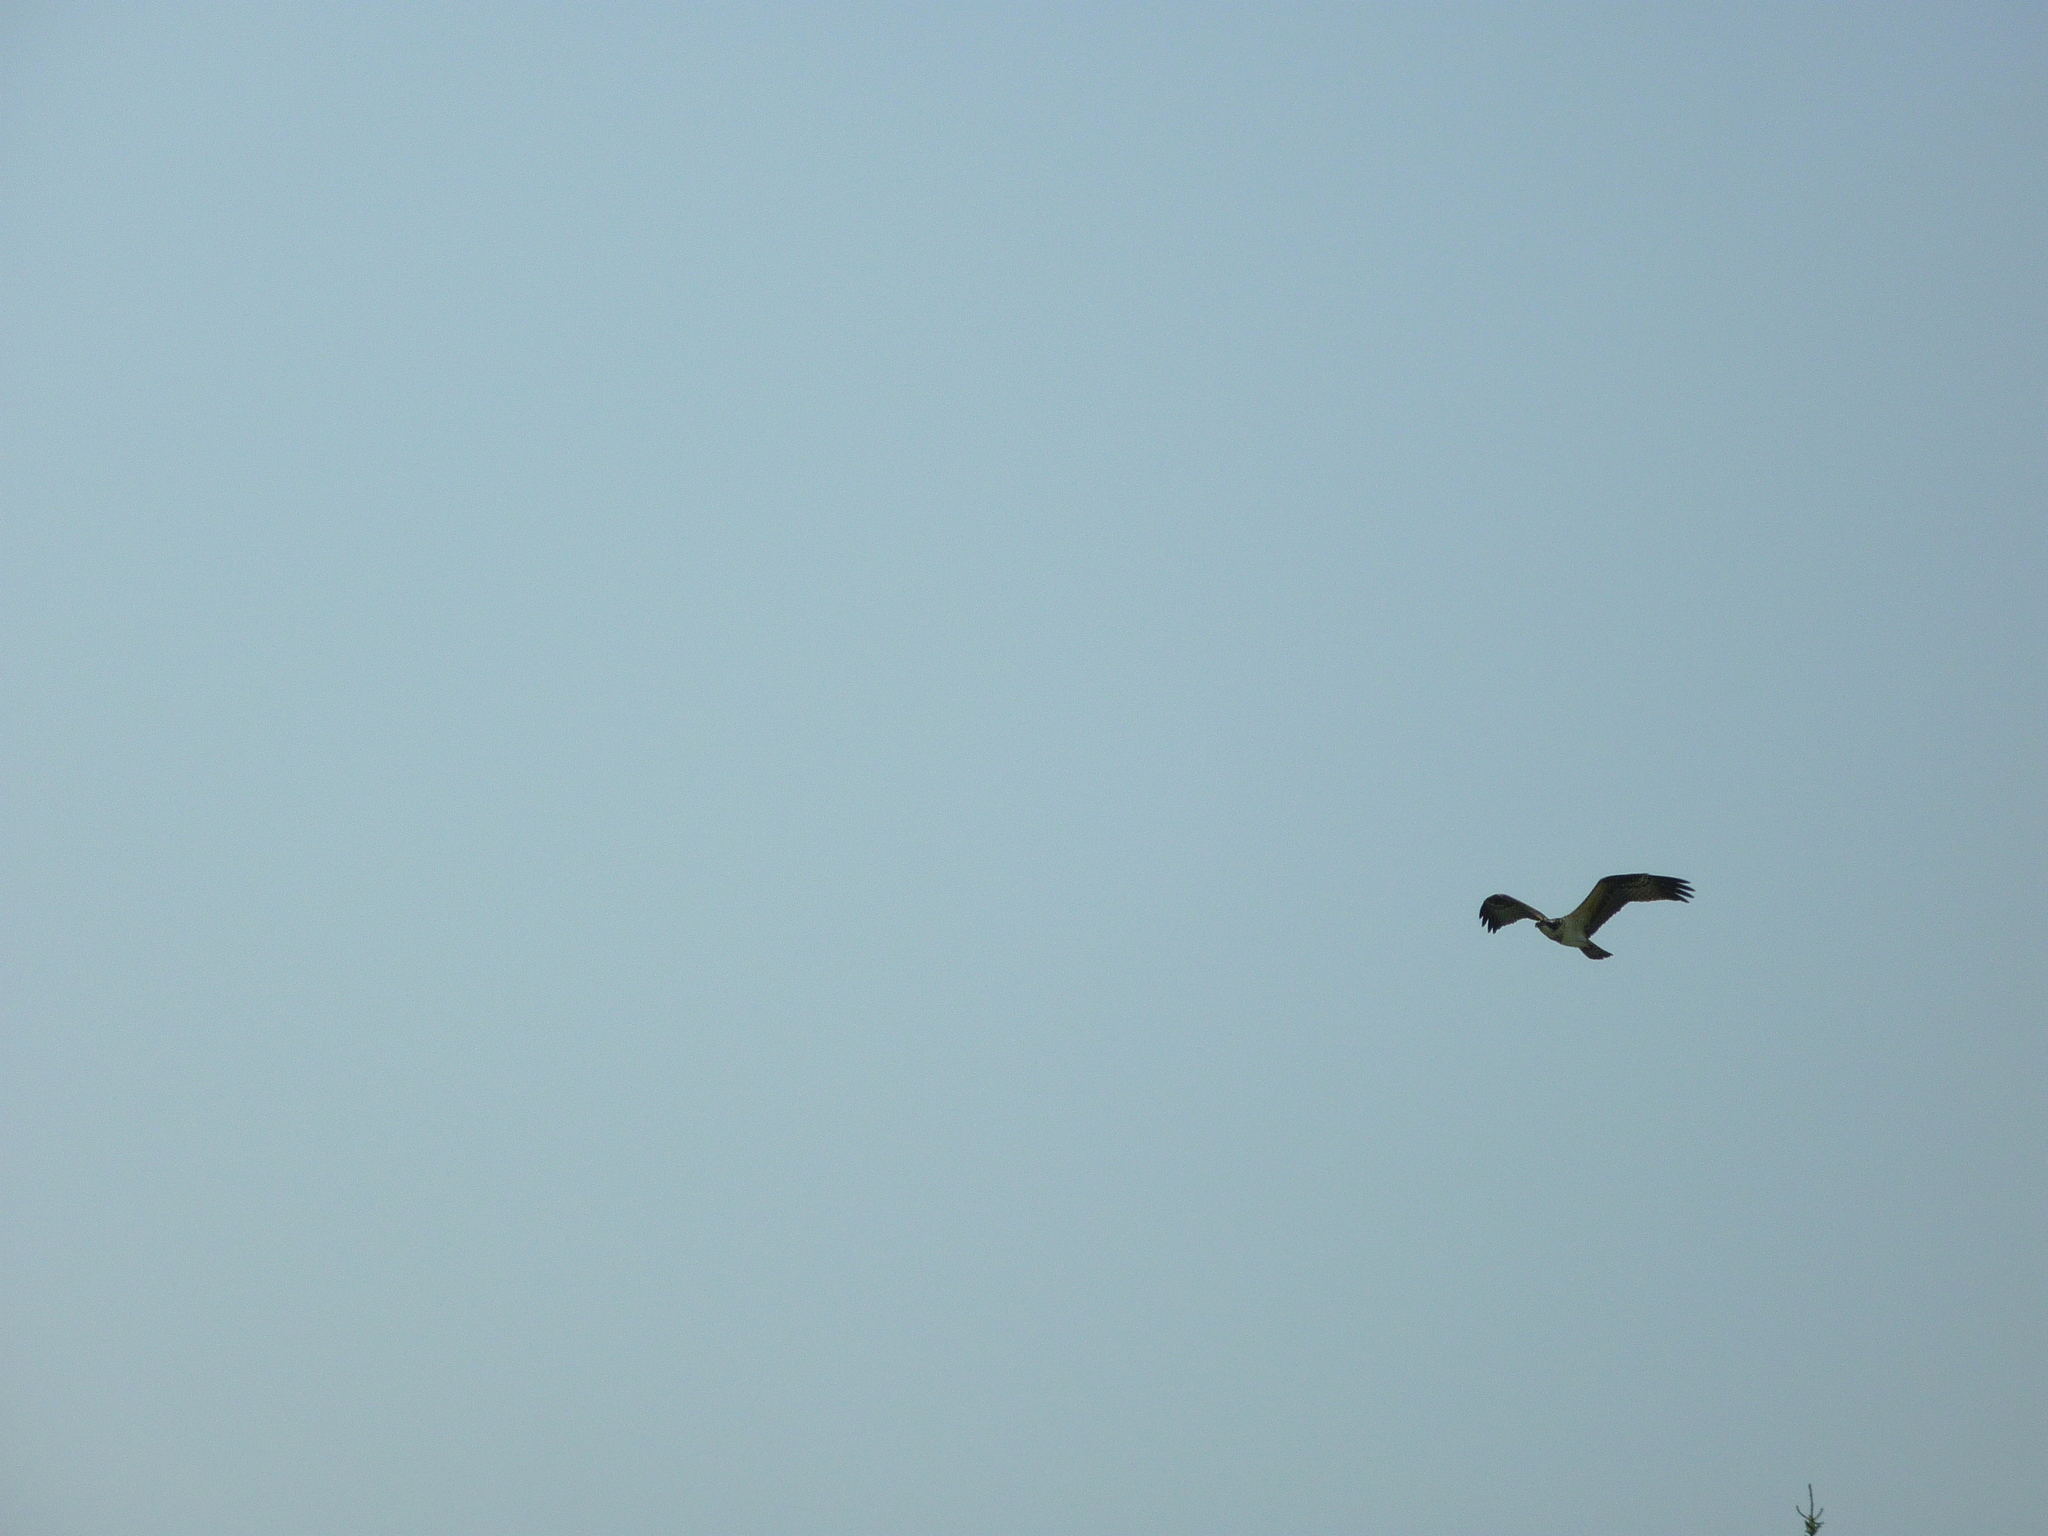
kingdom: Animalia
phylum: Chordata
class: Aves
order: Accipitriformes
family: Pandionidae
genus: Pandion
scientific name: Pandion haliaetus
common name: Osprey
